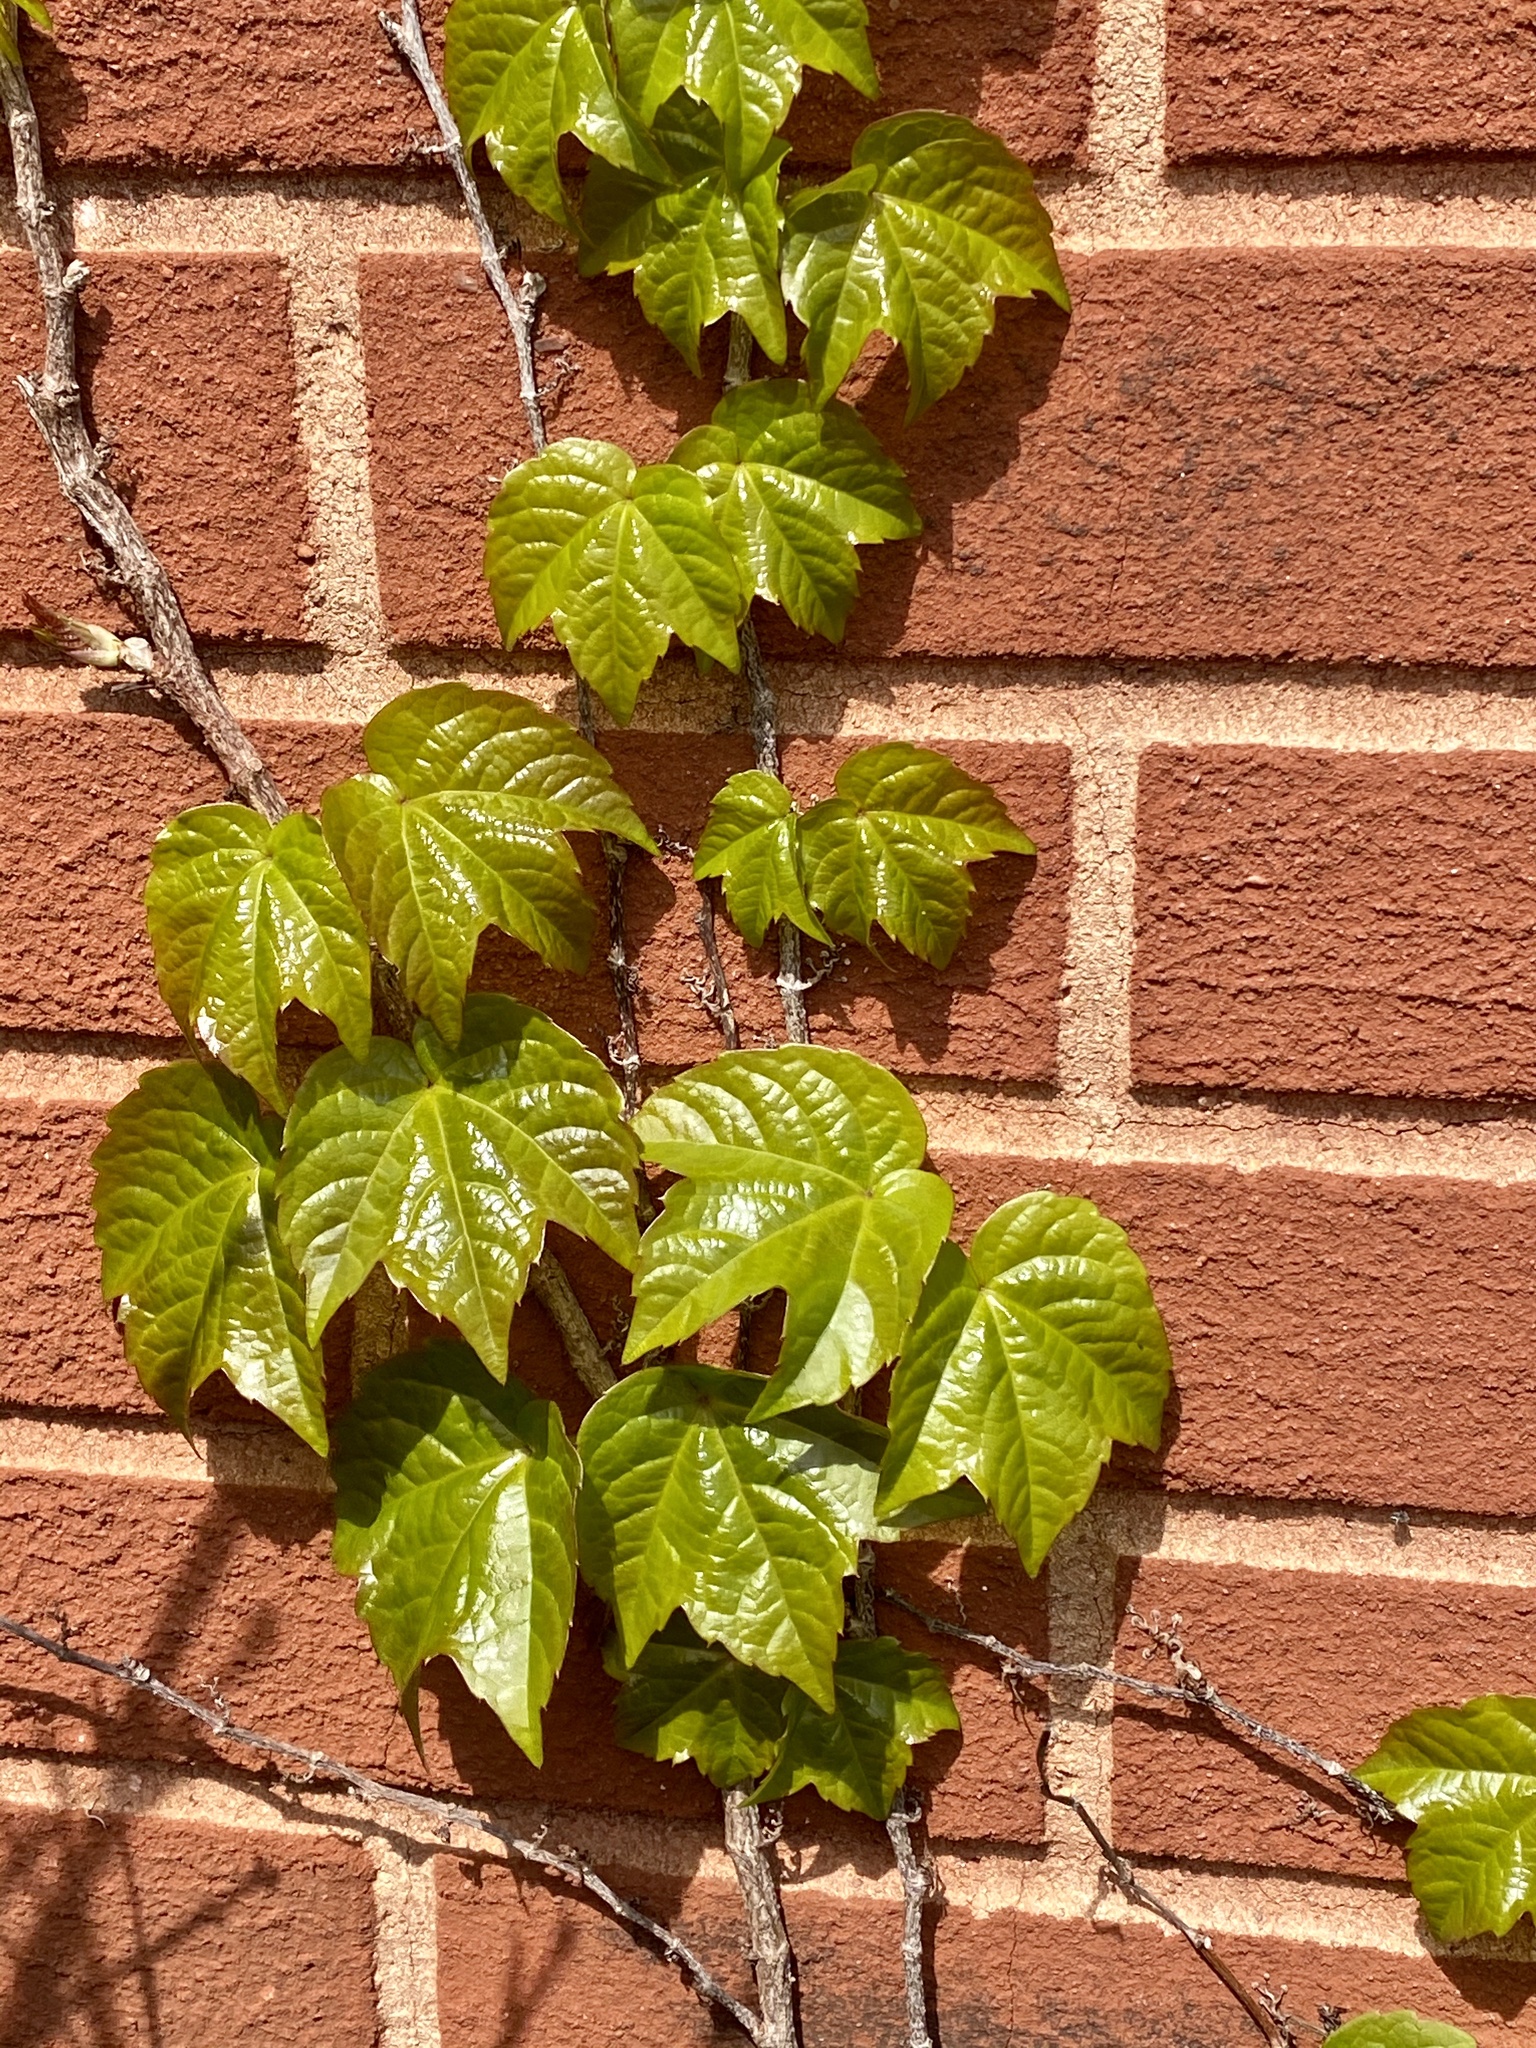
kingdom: Plantae
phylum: Tracheophyta
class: Magnoliopsida
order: Vitales
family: Vitaceae
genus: Parthenocissus
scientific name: Parthenocissus tricuspidata
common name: Boston ivy
